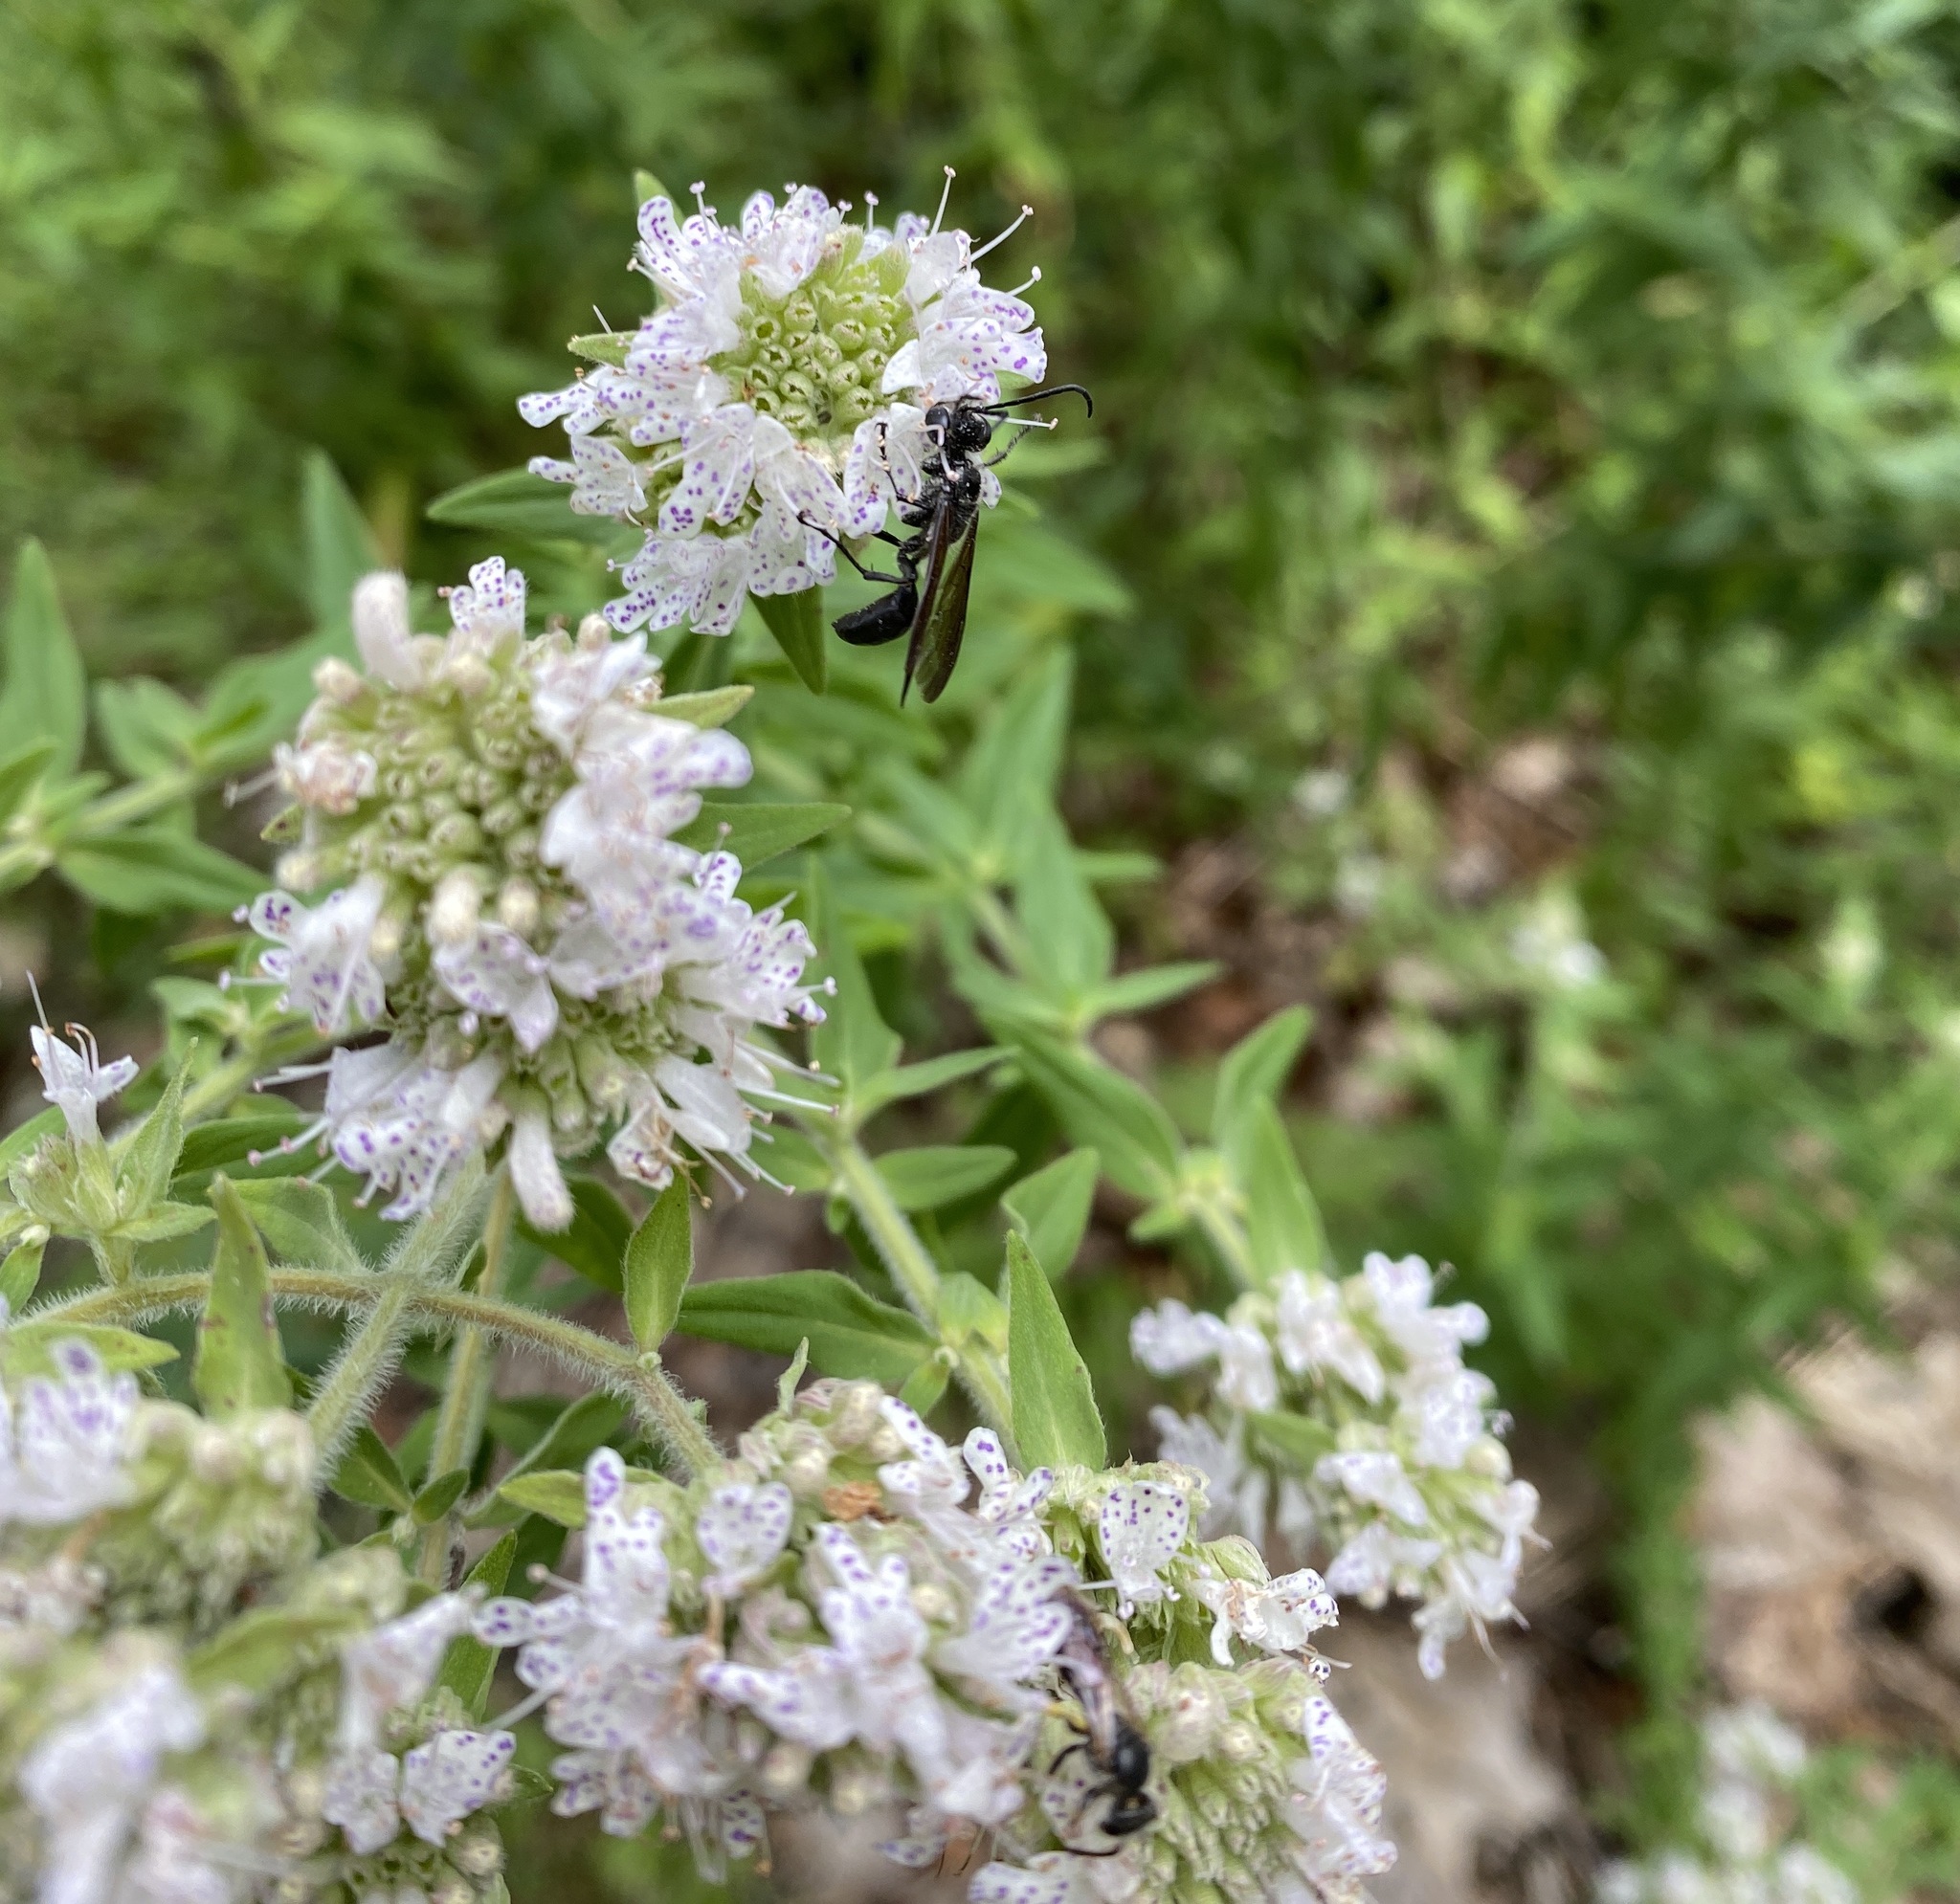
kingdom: Animalia
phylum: Arthropoda
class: Insecta
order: Hymenoptera
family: Sphecidae
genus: Isodontia
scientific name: Isodontia mexicana
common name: Mud dauber
